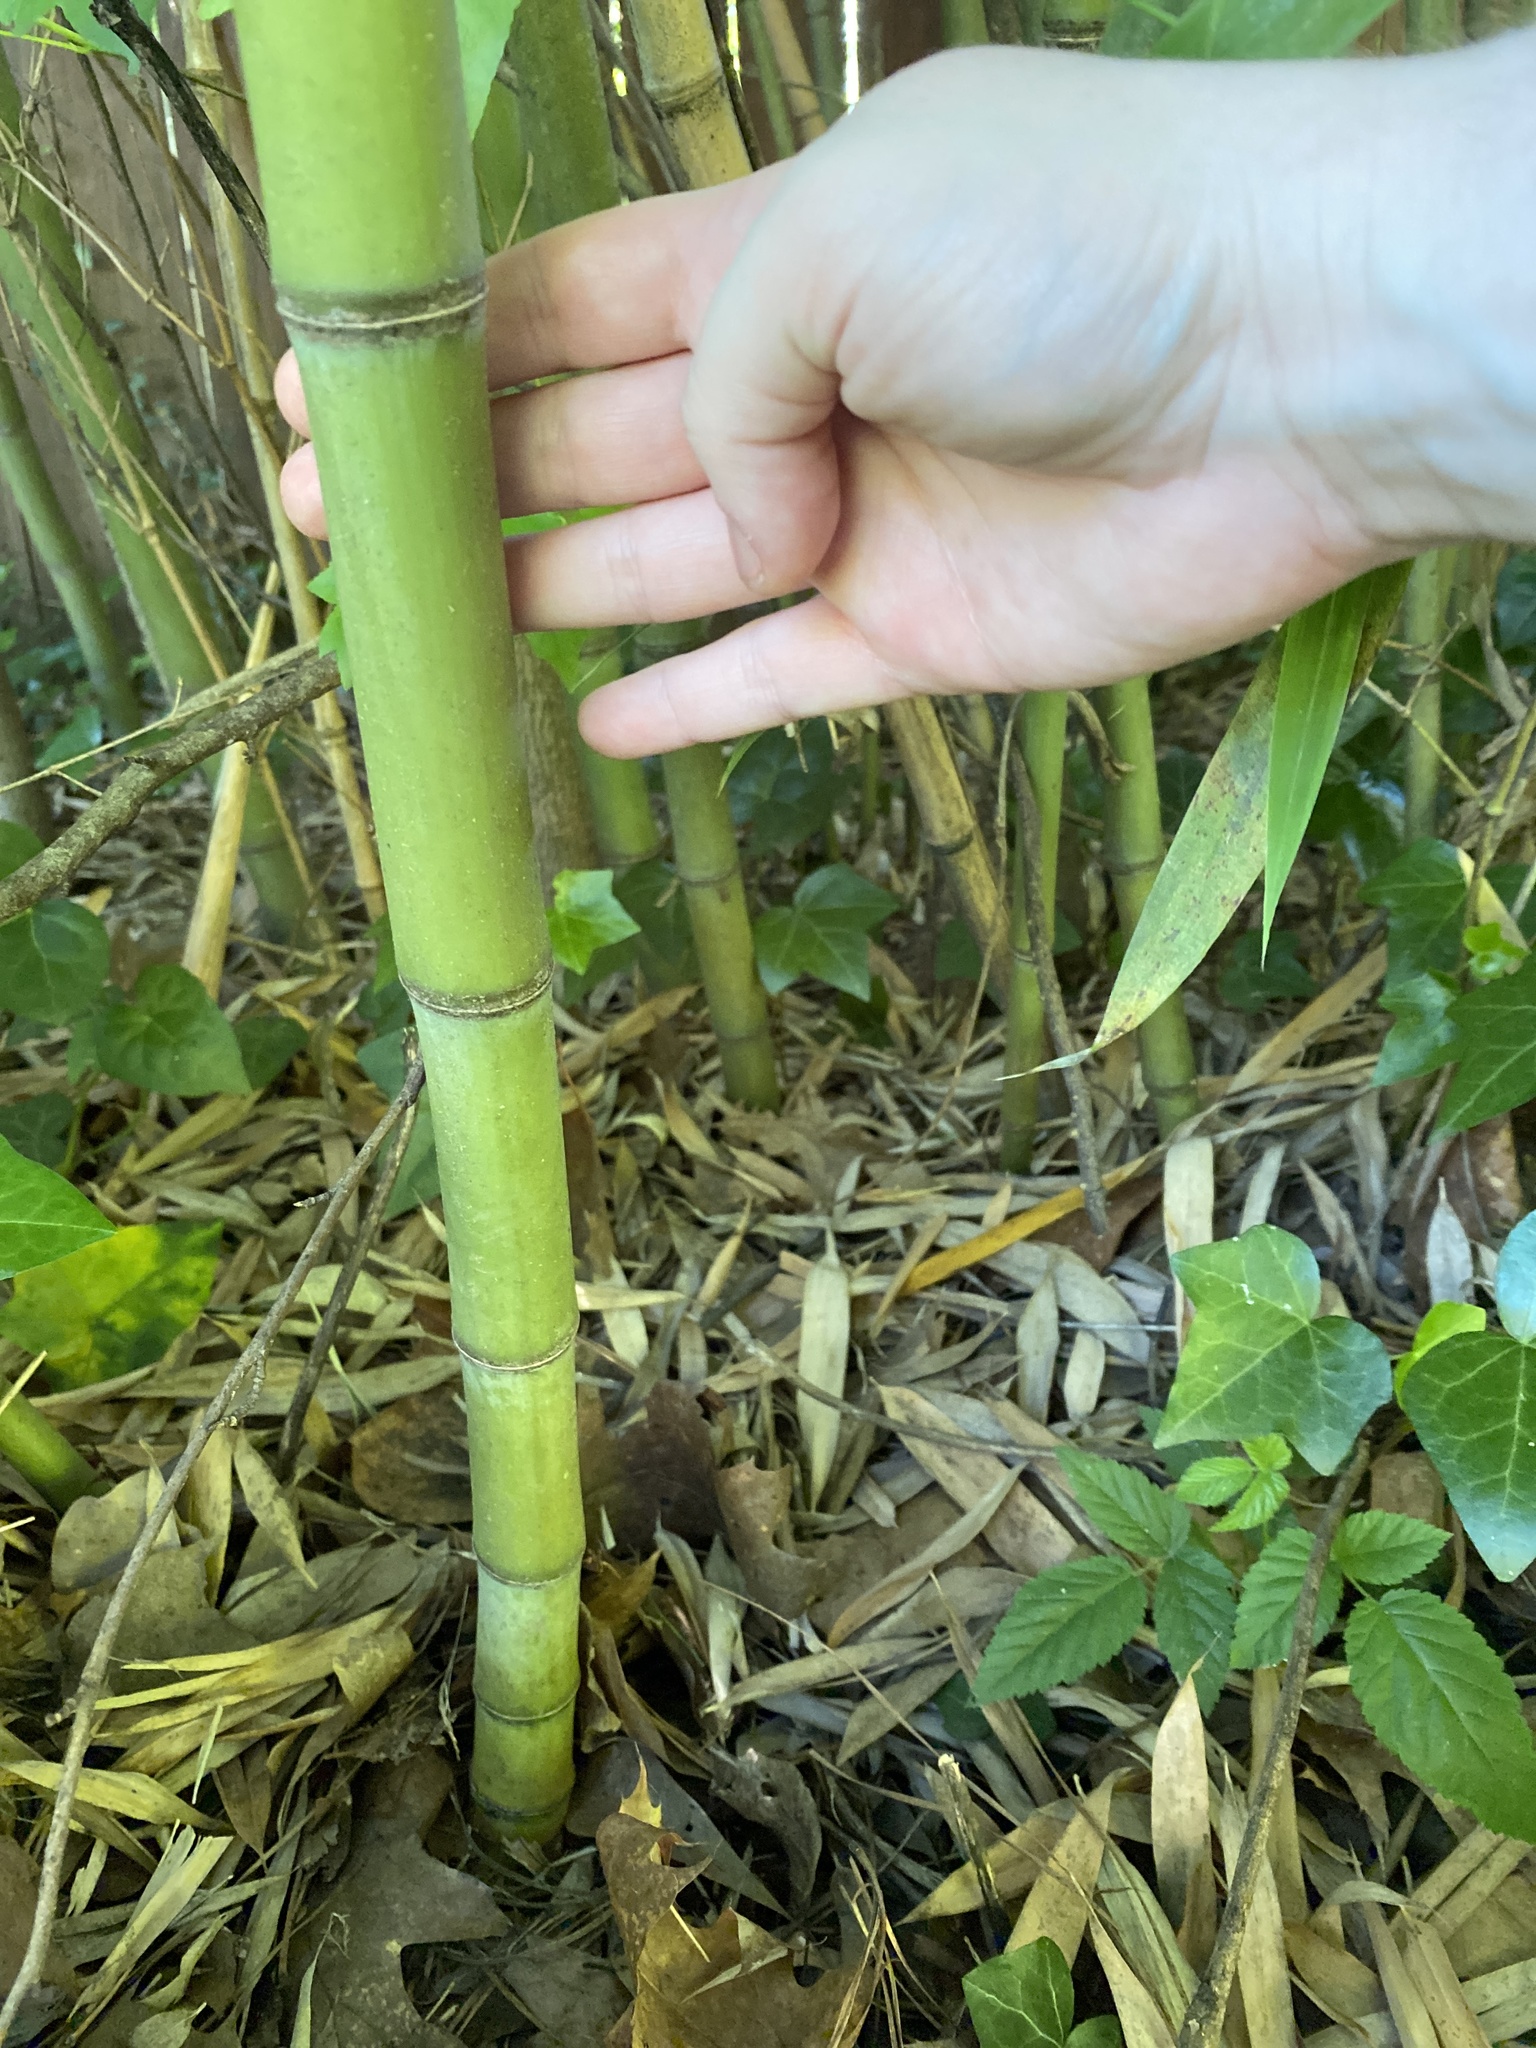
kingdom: Plantae
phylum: Tracheophyta
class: Liliopsida
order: Poales
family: Poaceae
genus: Phyllostachys
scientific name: Phyllostachys aurea
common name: Golden bamboo
